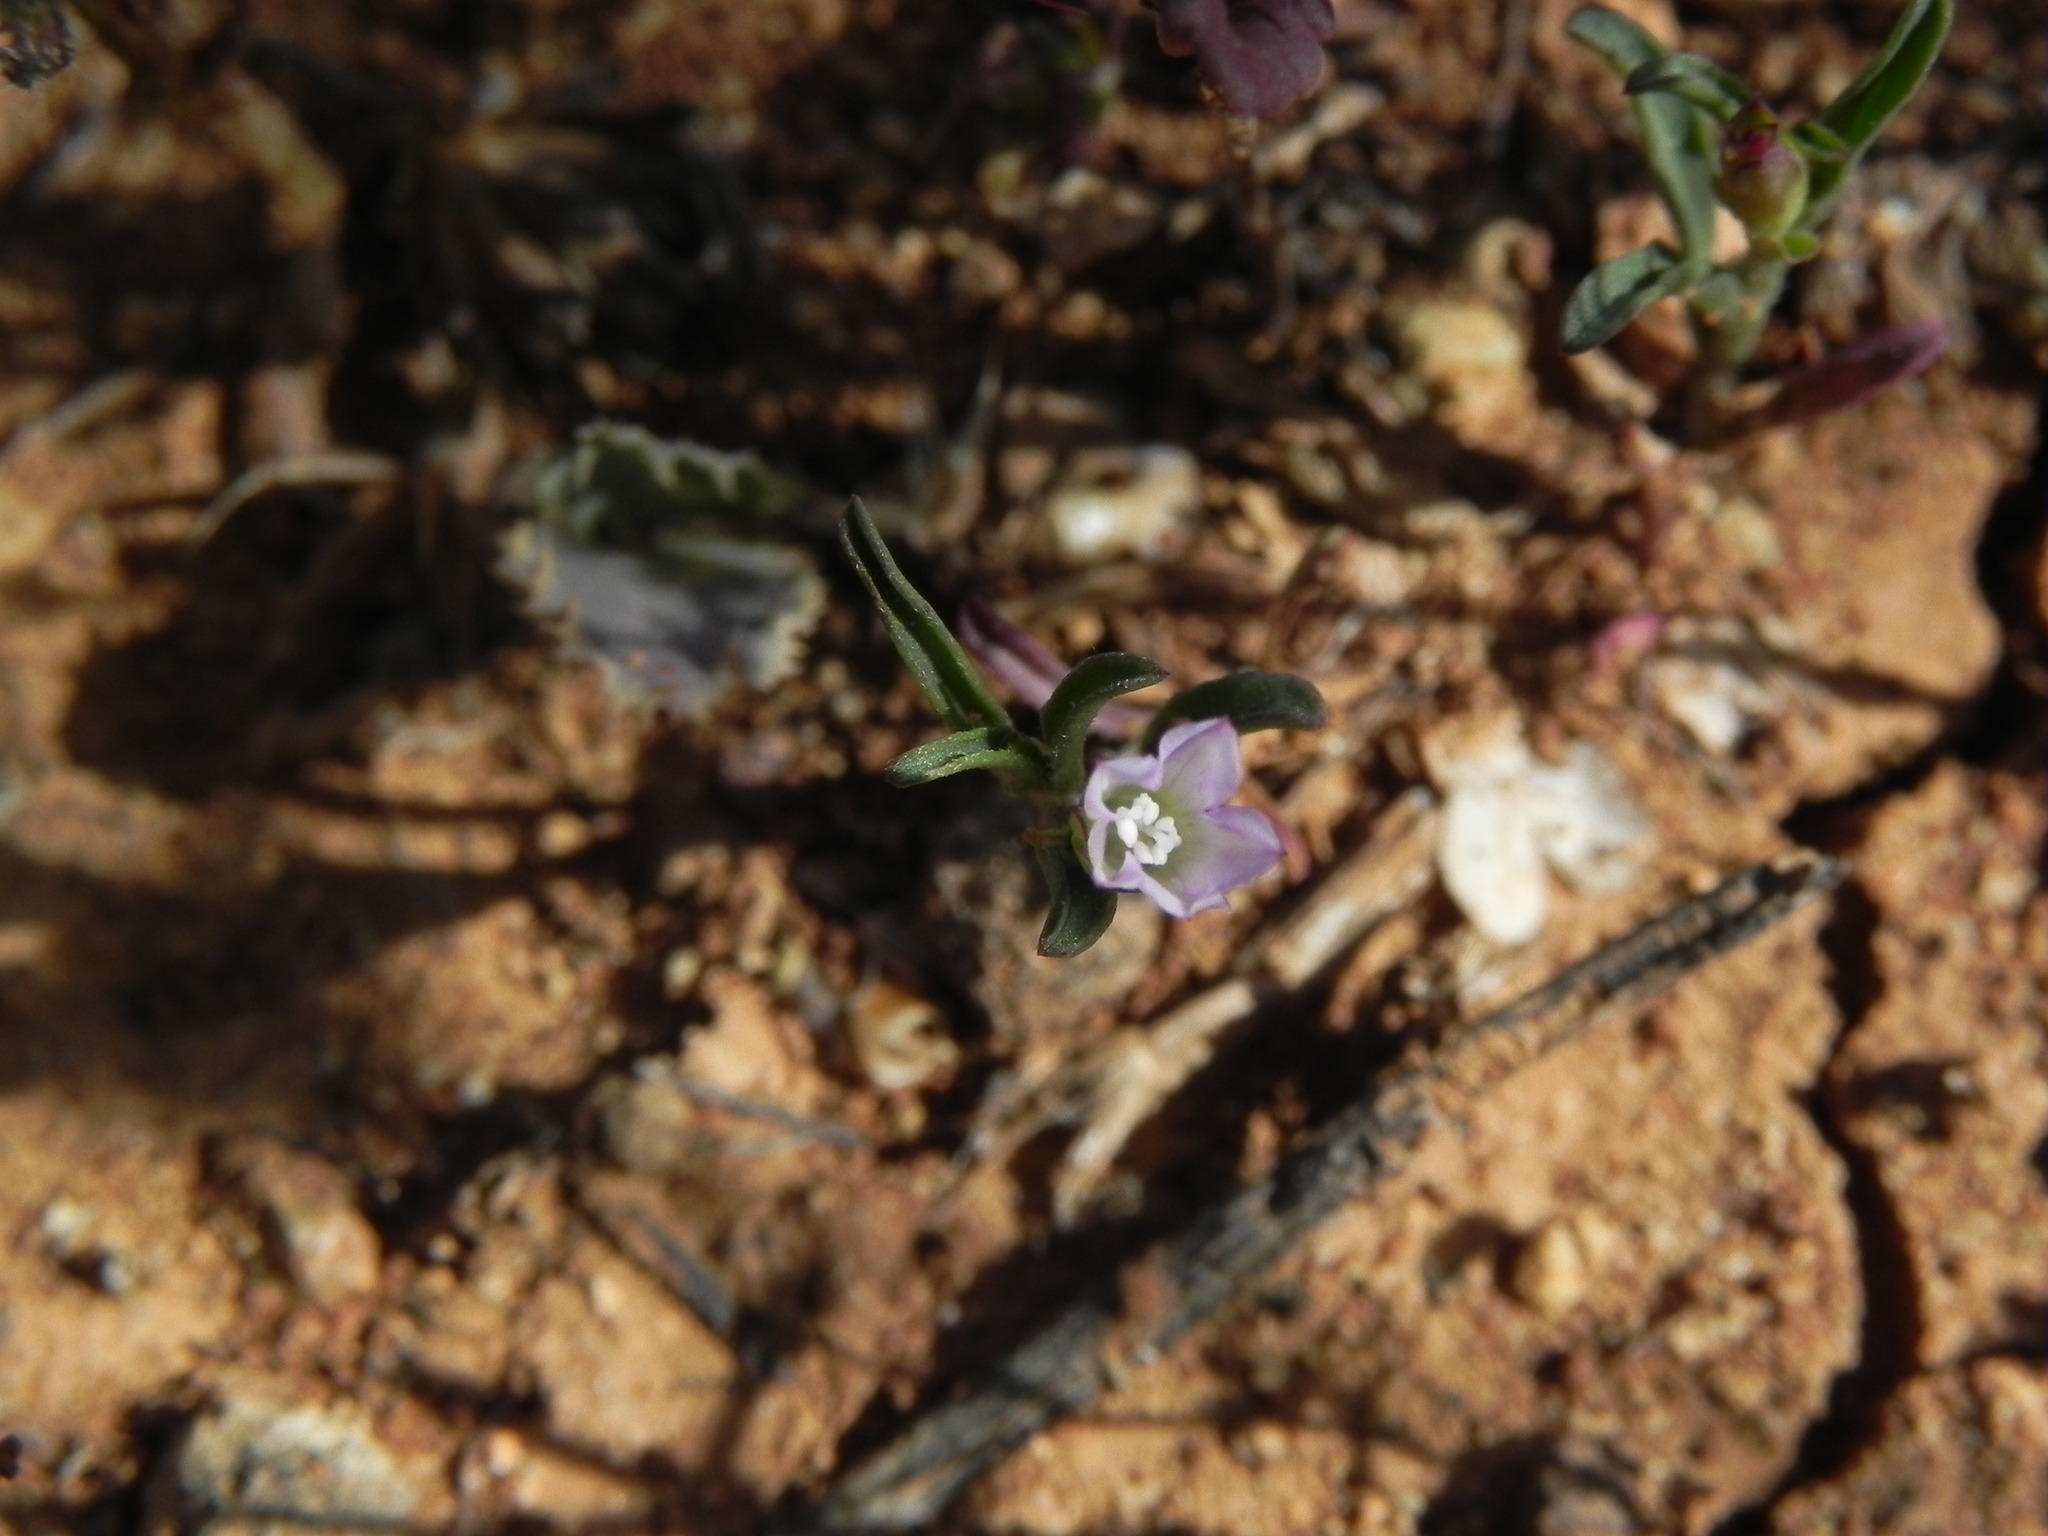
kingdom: Plantae
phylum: Tracheophyta
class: Magnoliopsida
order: Solanales
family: Convolvulaceae
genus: Convolvulus
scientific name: Convolvulus simulans
